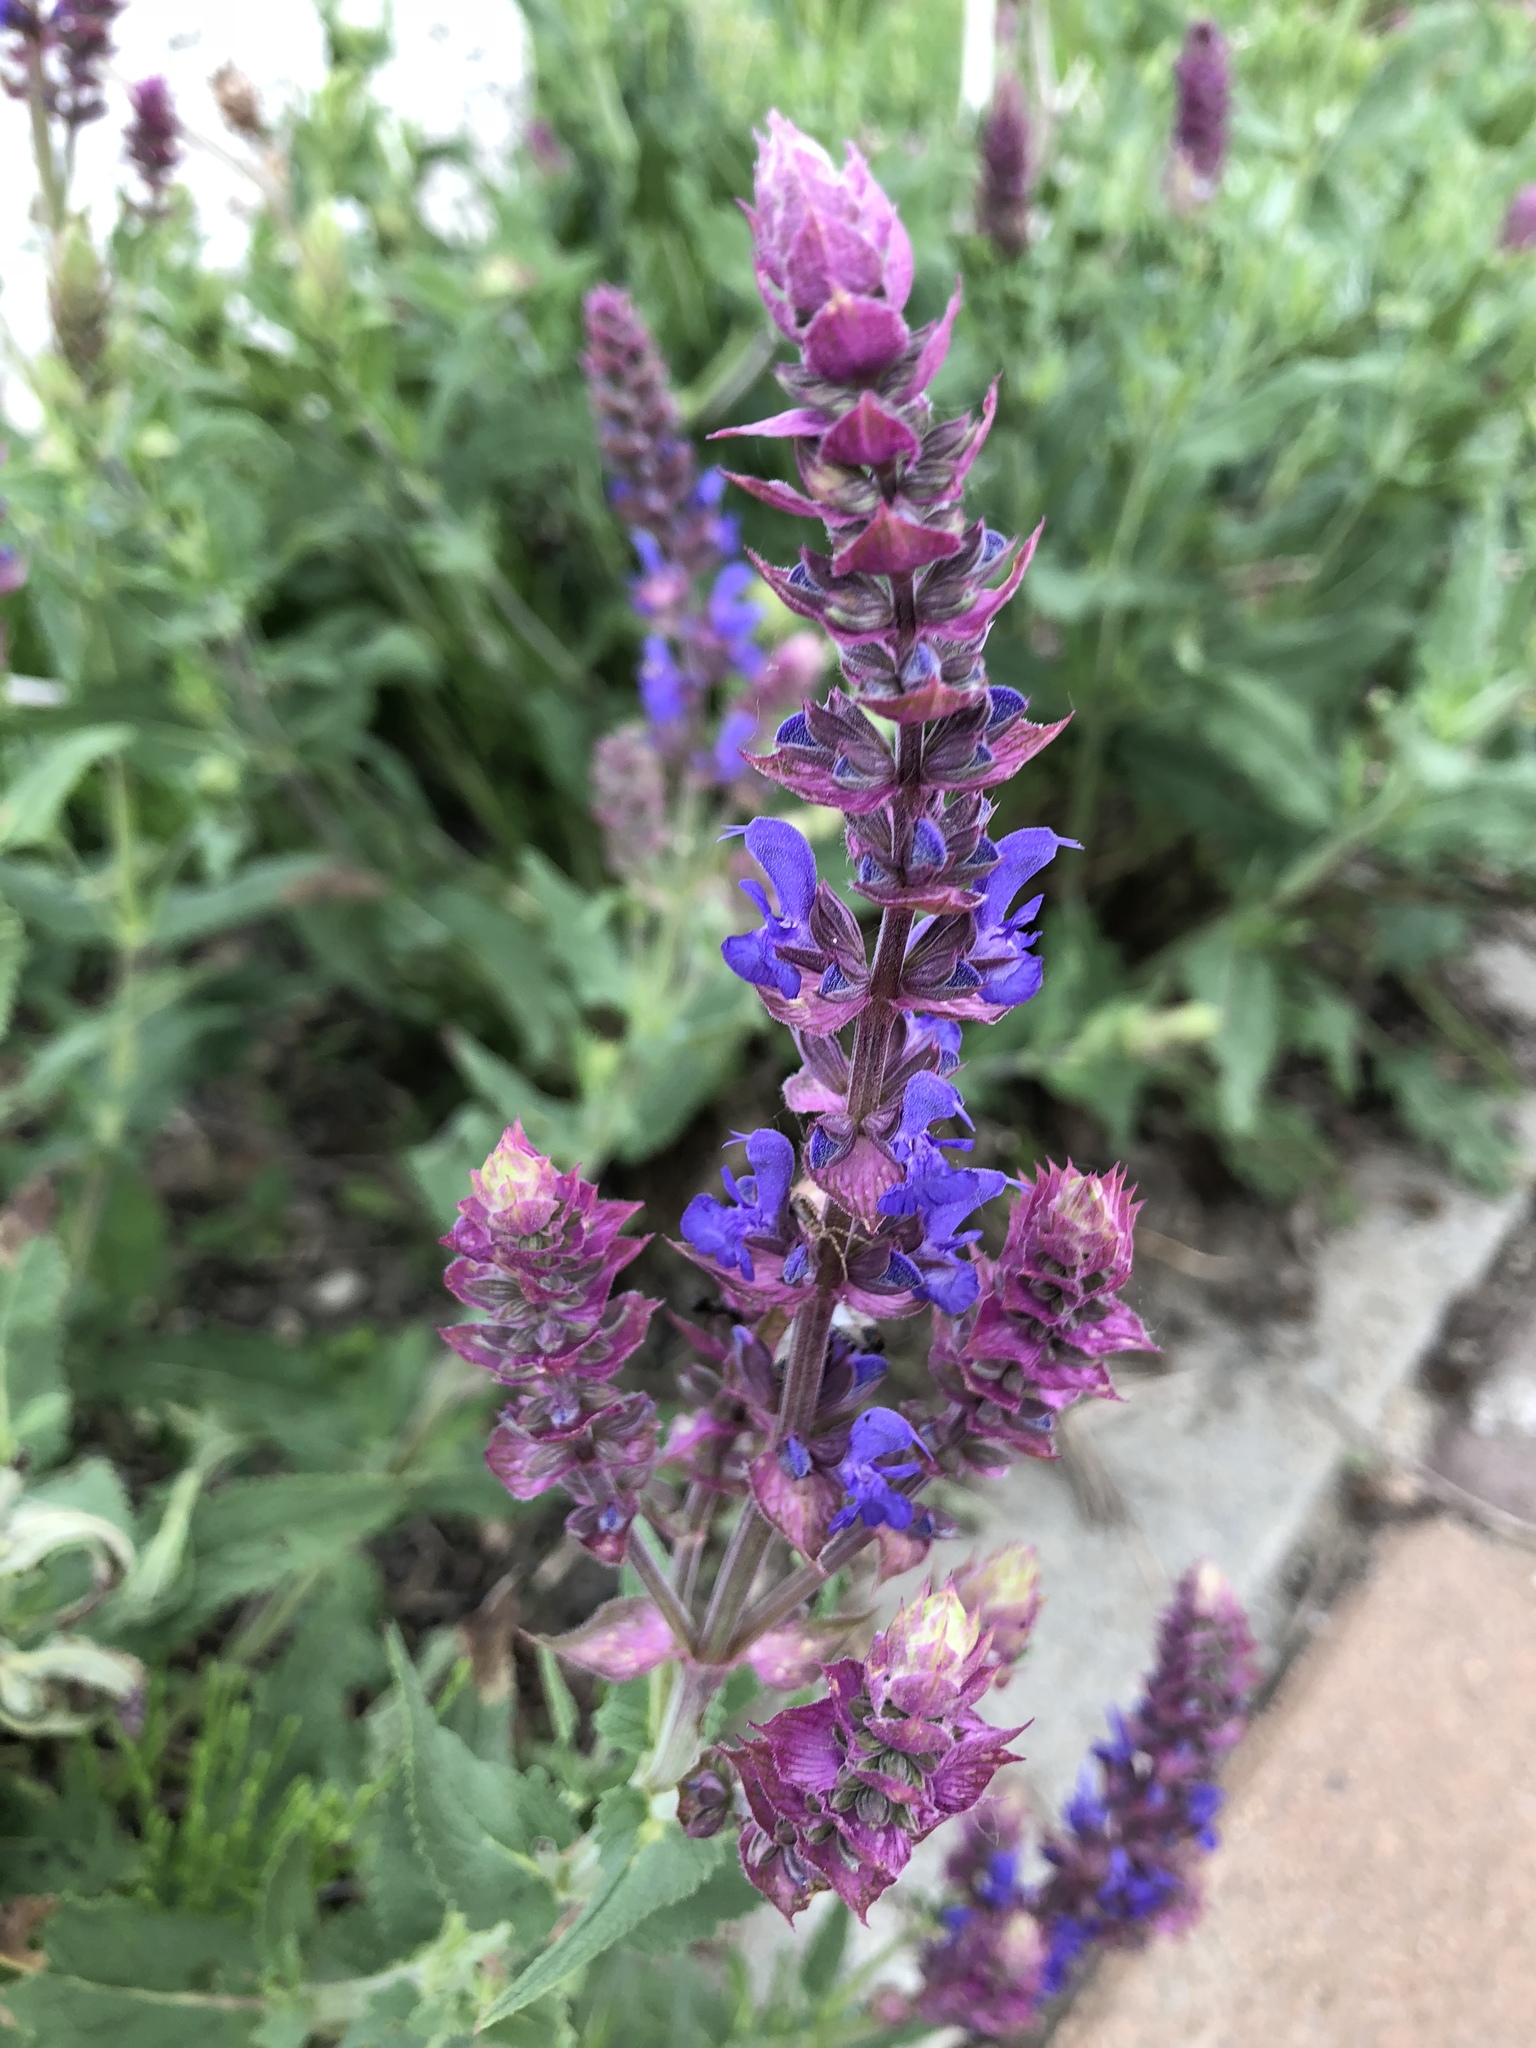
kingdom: Plantae
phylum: Tracheophyta
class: Magnoliopsida
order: Lamiales
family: Lamiaceae
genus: Salvia
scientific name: Salvia nemorosa
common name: Balkan clary
